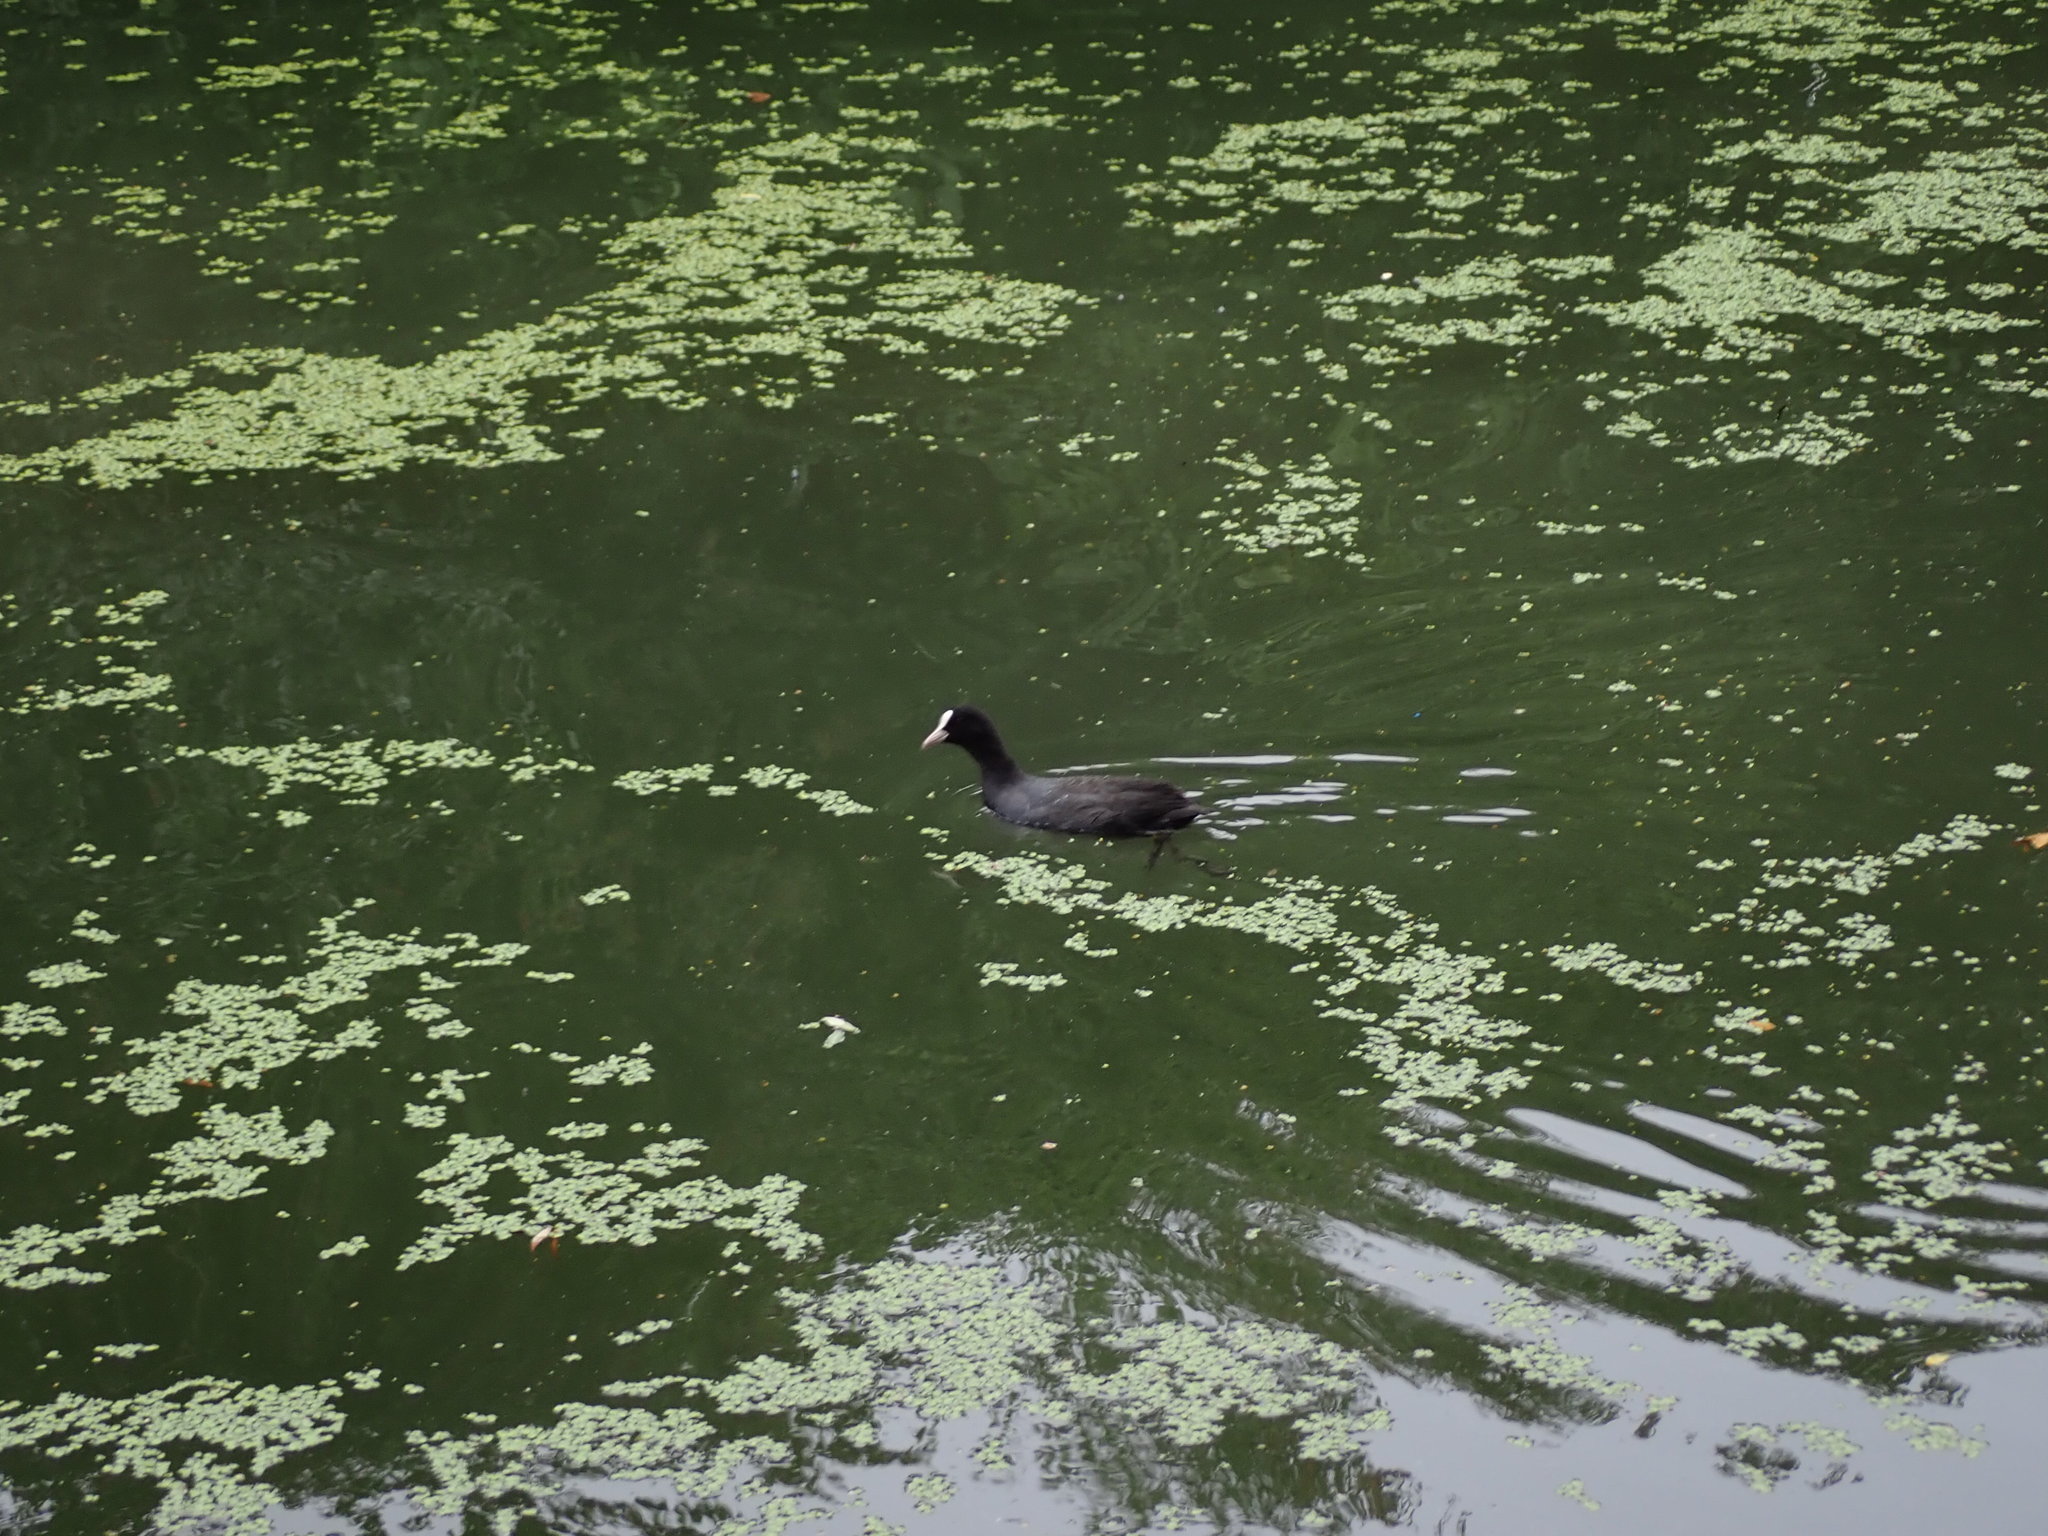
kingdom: Animalia
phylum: Chordata
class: Aves
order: Gruiformes
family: Rallidae
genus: Fulica
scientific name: Fulica atra
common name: Eurasian coot
